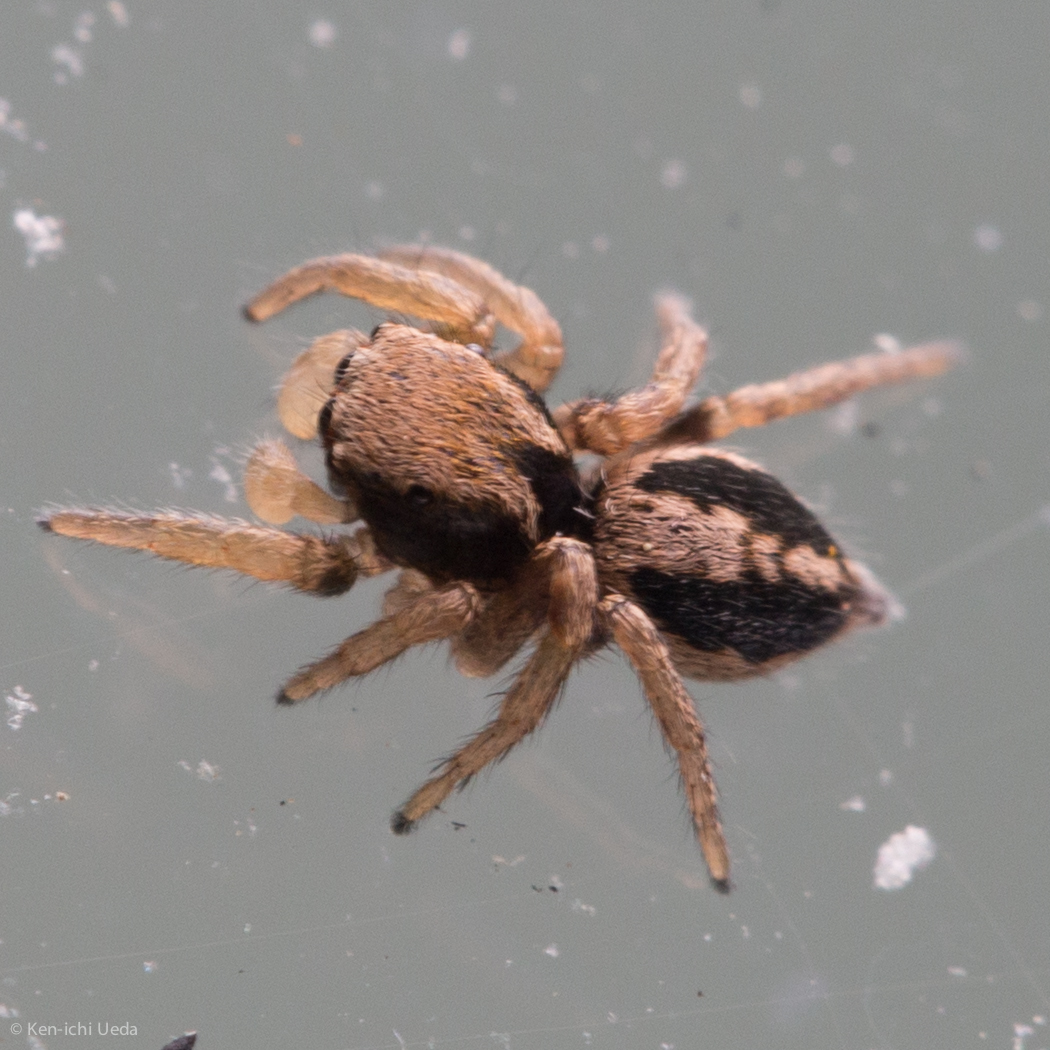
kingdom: Animalia
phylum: Arthropoda
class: Arachnida
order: Araneae
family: Salticidae
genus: Habronattus
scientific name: Habronattus pyrrithrix
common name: Jumping spider
